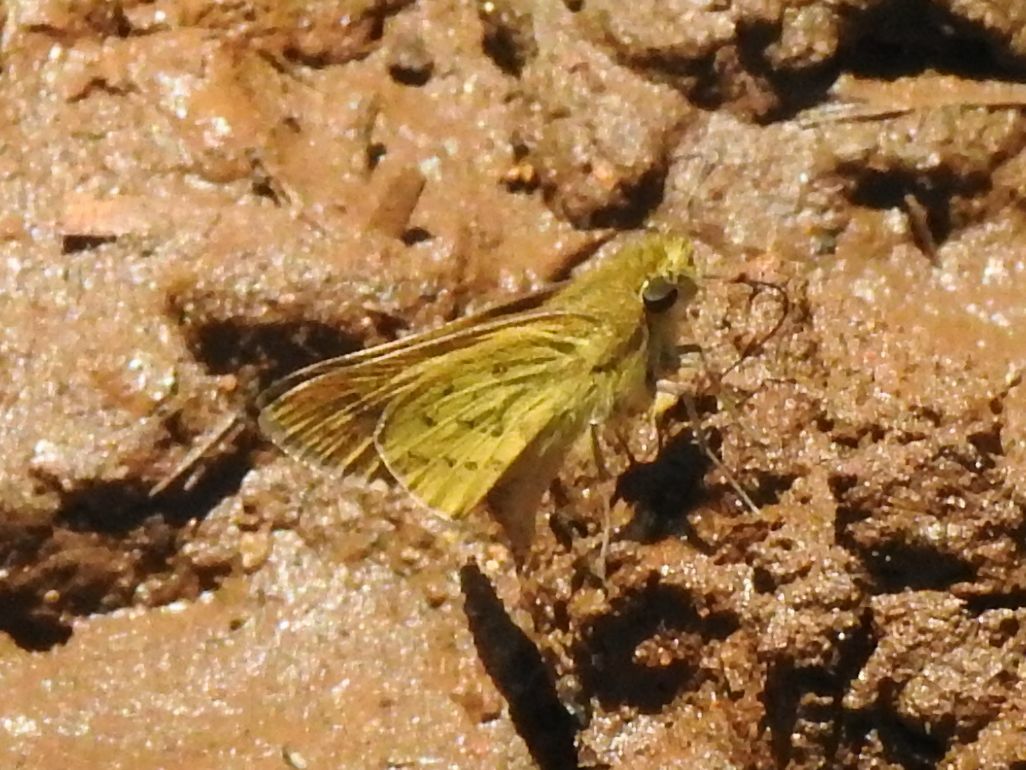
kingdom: Animalia
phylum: Arthropoda
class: Insecta
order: Hymenoptera
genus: Afrogenes
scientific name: Afrogenes
